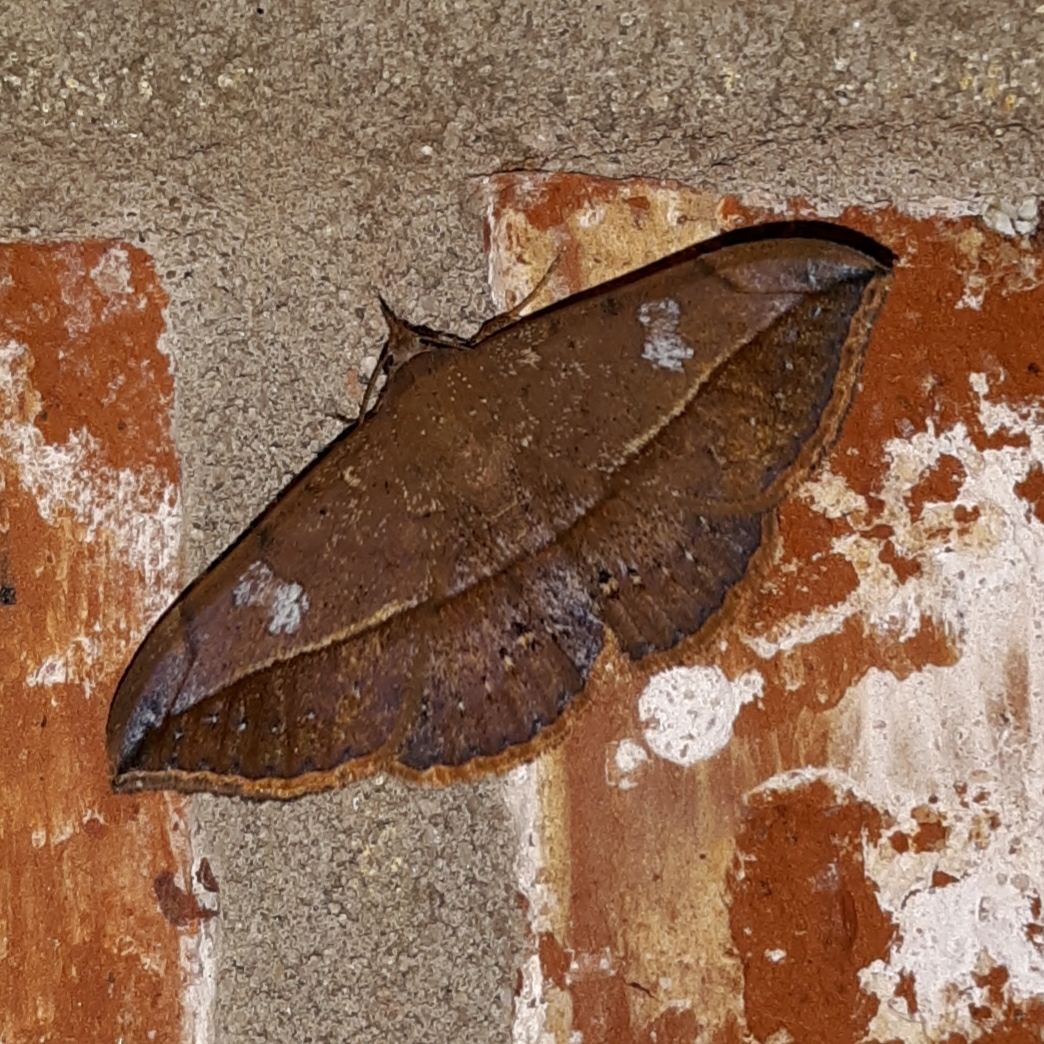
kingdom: Animalia
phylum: Arthropoda
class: Insecta
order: Lepidoptera
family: Erebidae
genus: Anticarsia
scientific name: Anticarsia gemmatalis
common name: Cutworm moth
